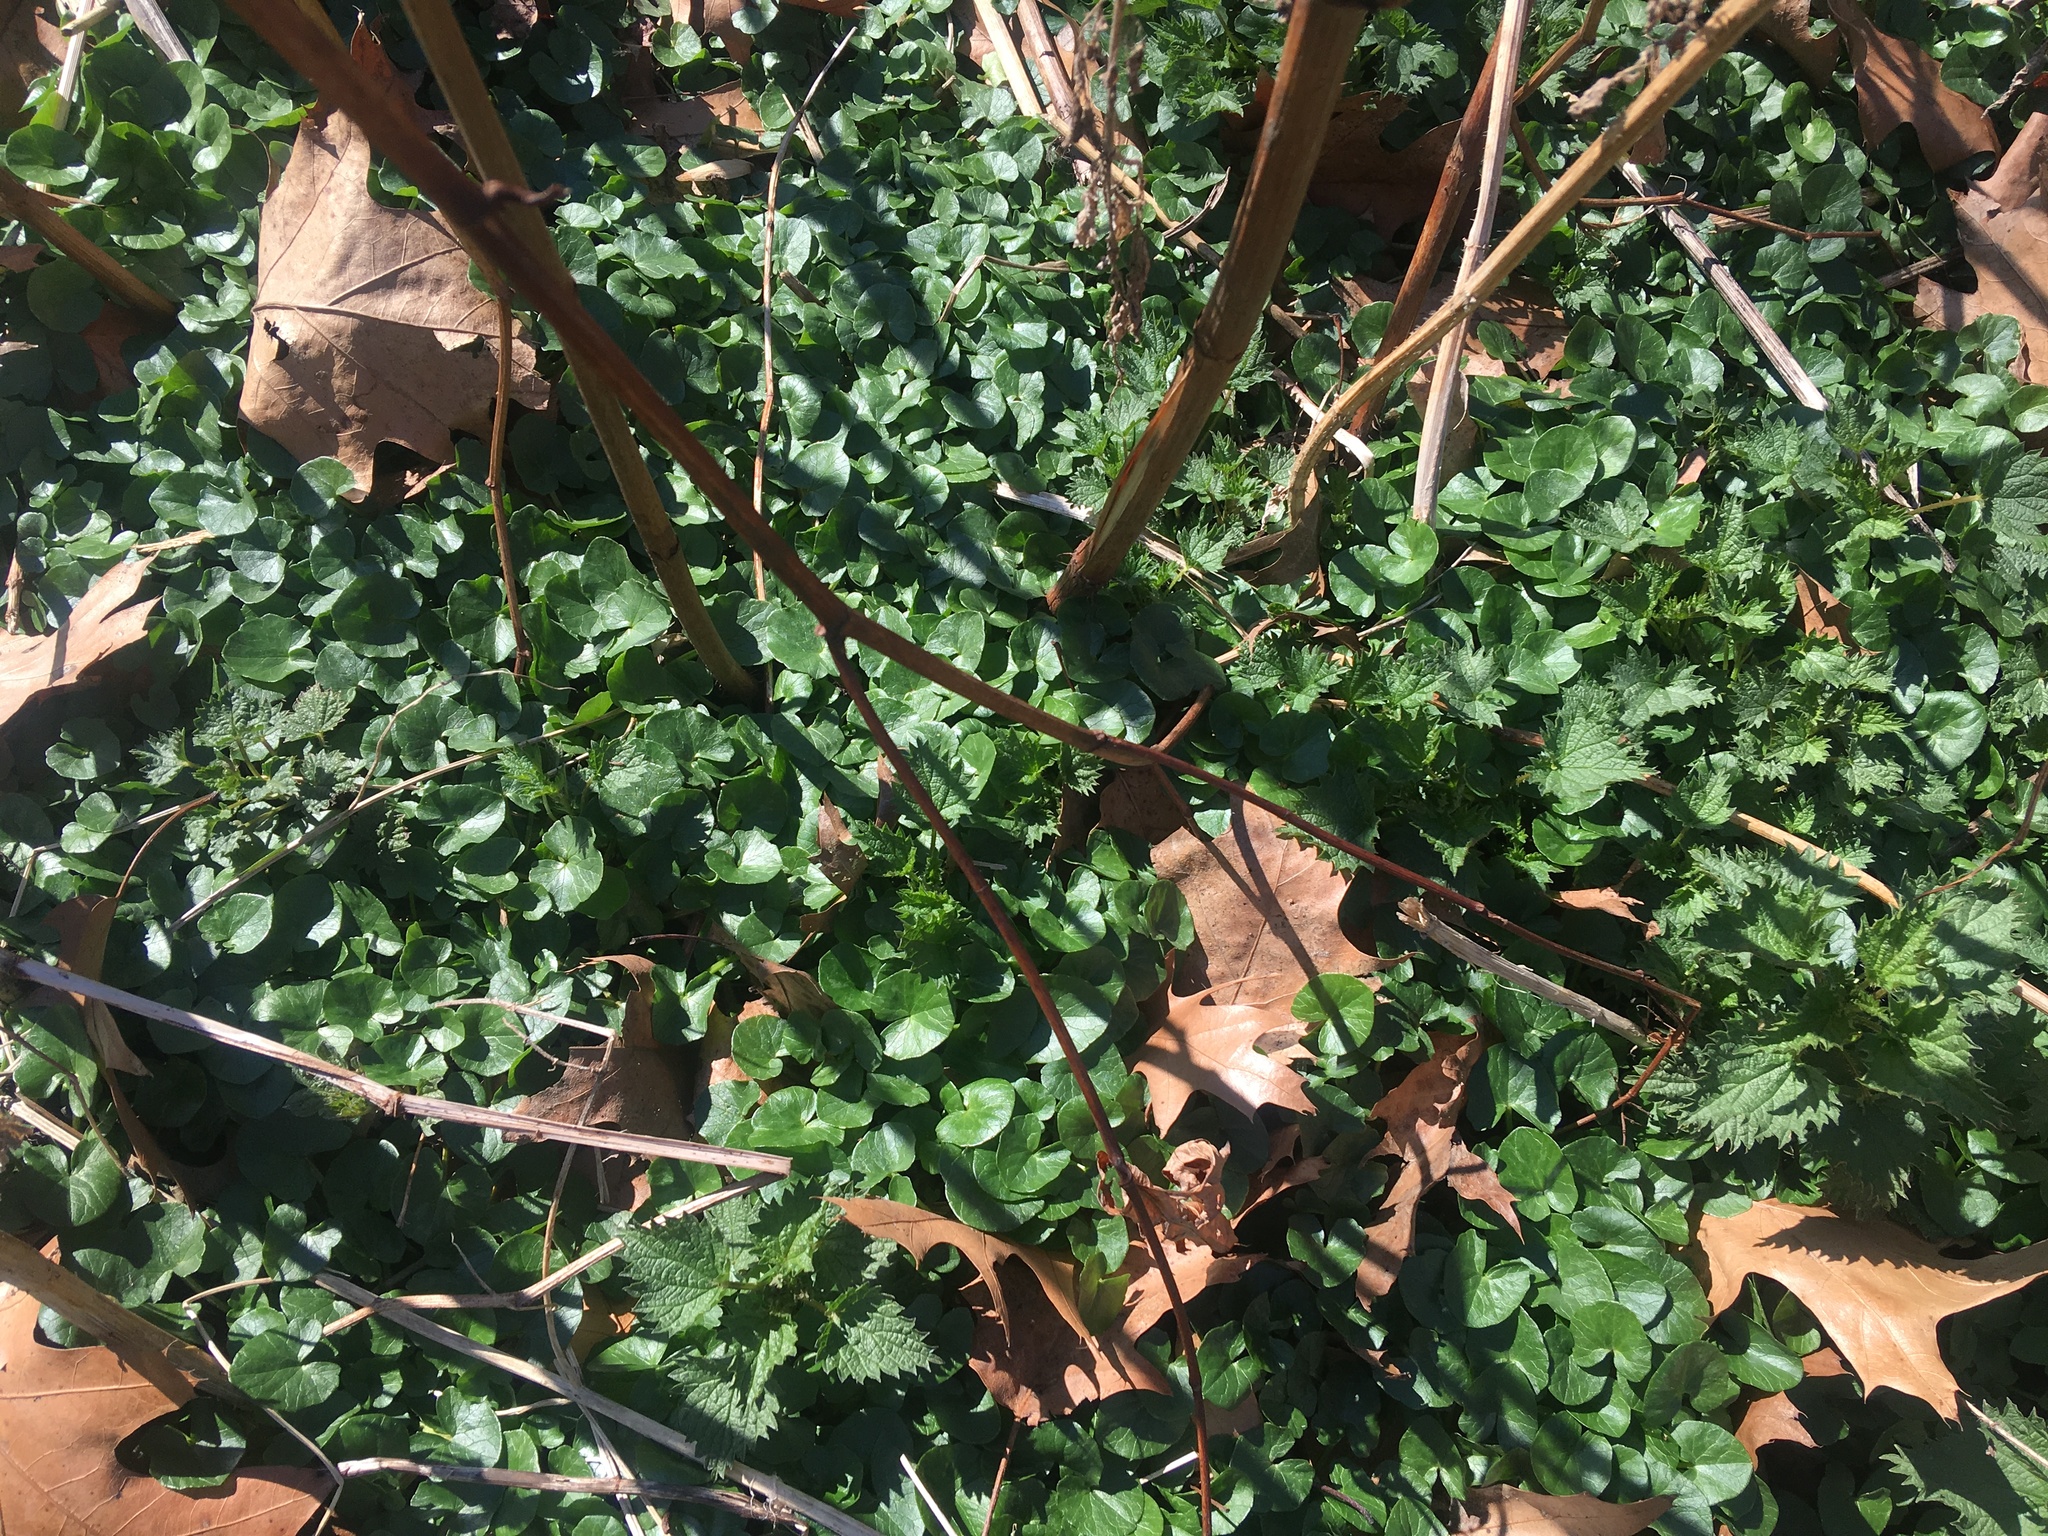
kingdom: Plantae
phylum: Tracheophyta
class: Magnoliopsida
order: Ranunculales
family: Ranunculaceae
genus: Ficaria
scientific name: Ficaria verna
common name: Lesser celandine
